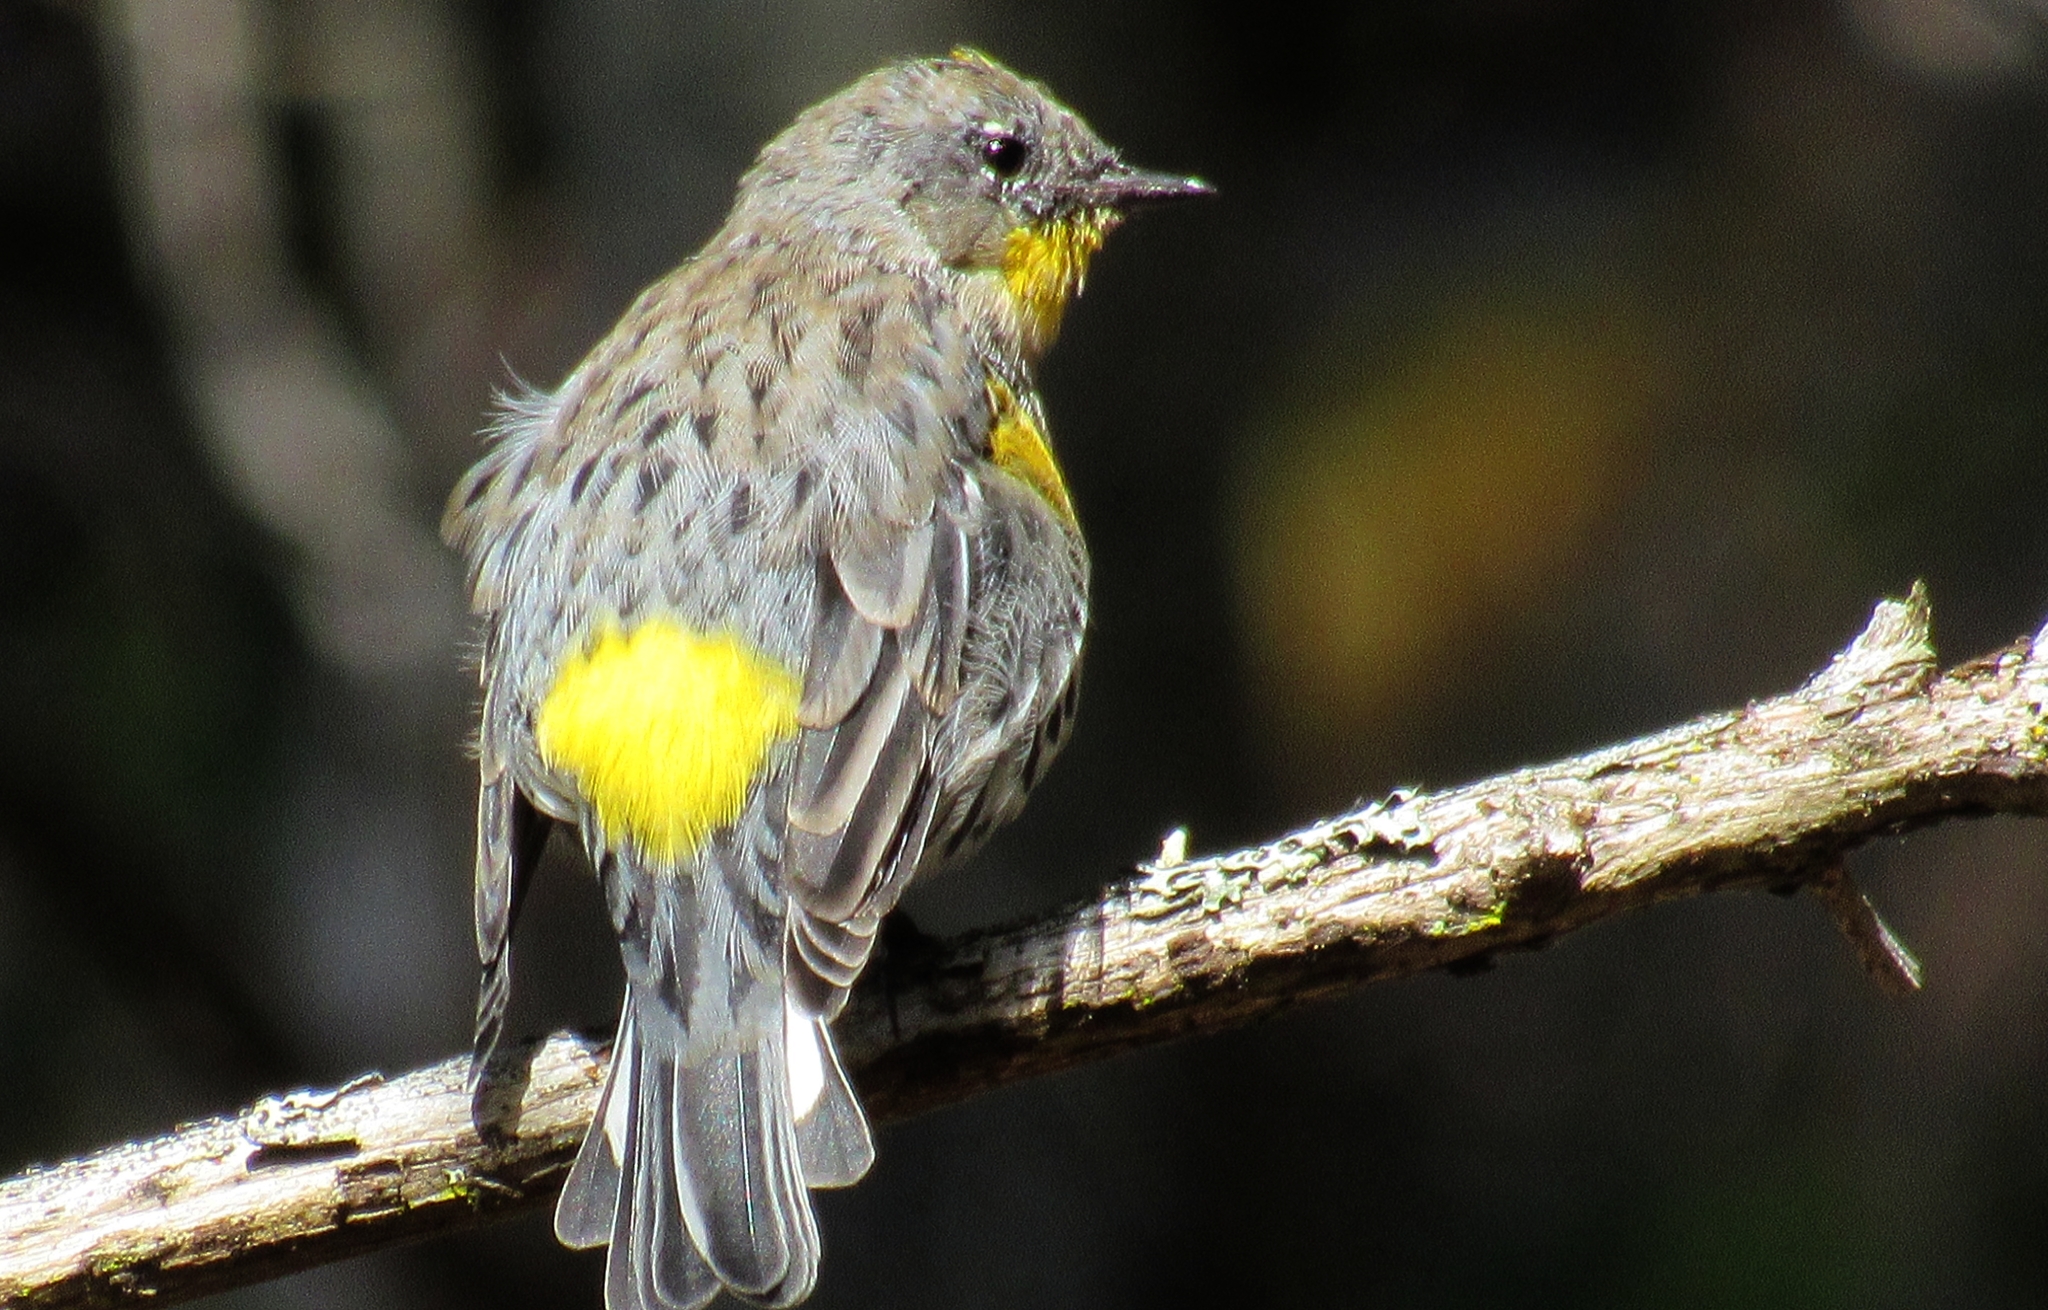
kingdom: Animalia
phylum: Chordata
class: Aves
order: Passeriformes
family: Parulidae
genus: Setophaga
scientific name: Setophaga auduboni
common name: Audubon's warbler
